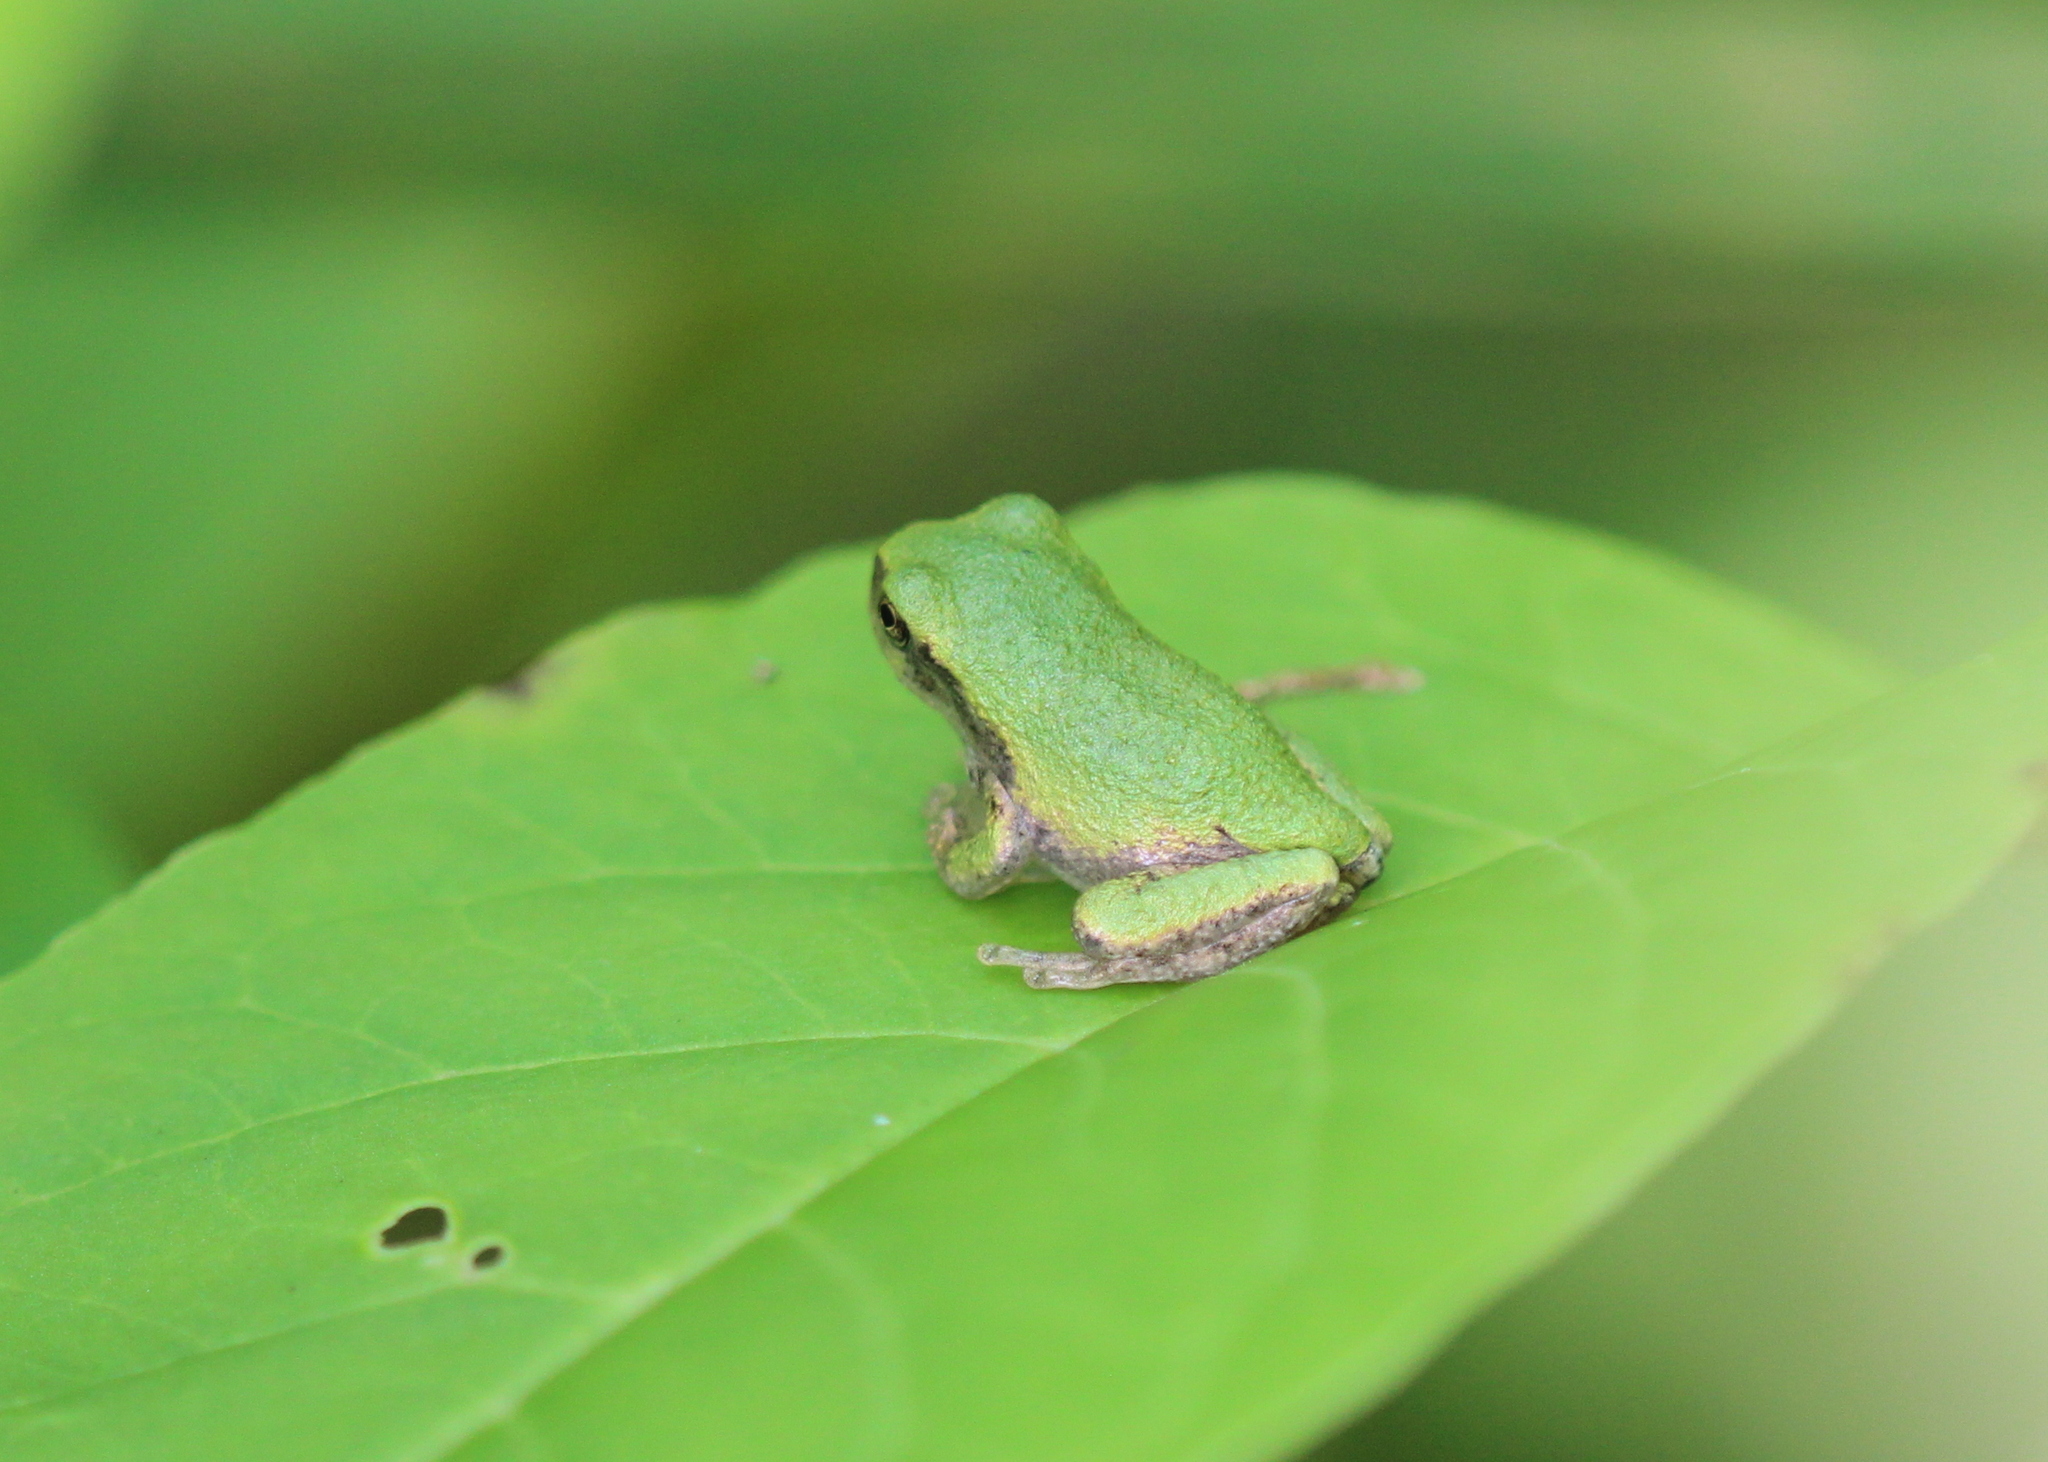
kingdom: Animalia
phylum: Chordata
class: Amphibia
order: Anura
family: Hylidae
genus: Dryophytes
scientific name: Dryophytes versicolor
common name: Gray treefrog
